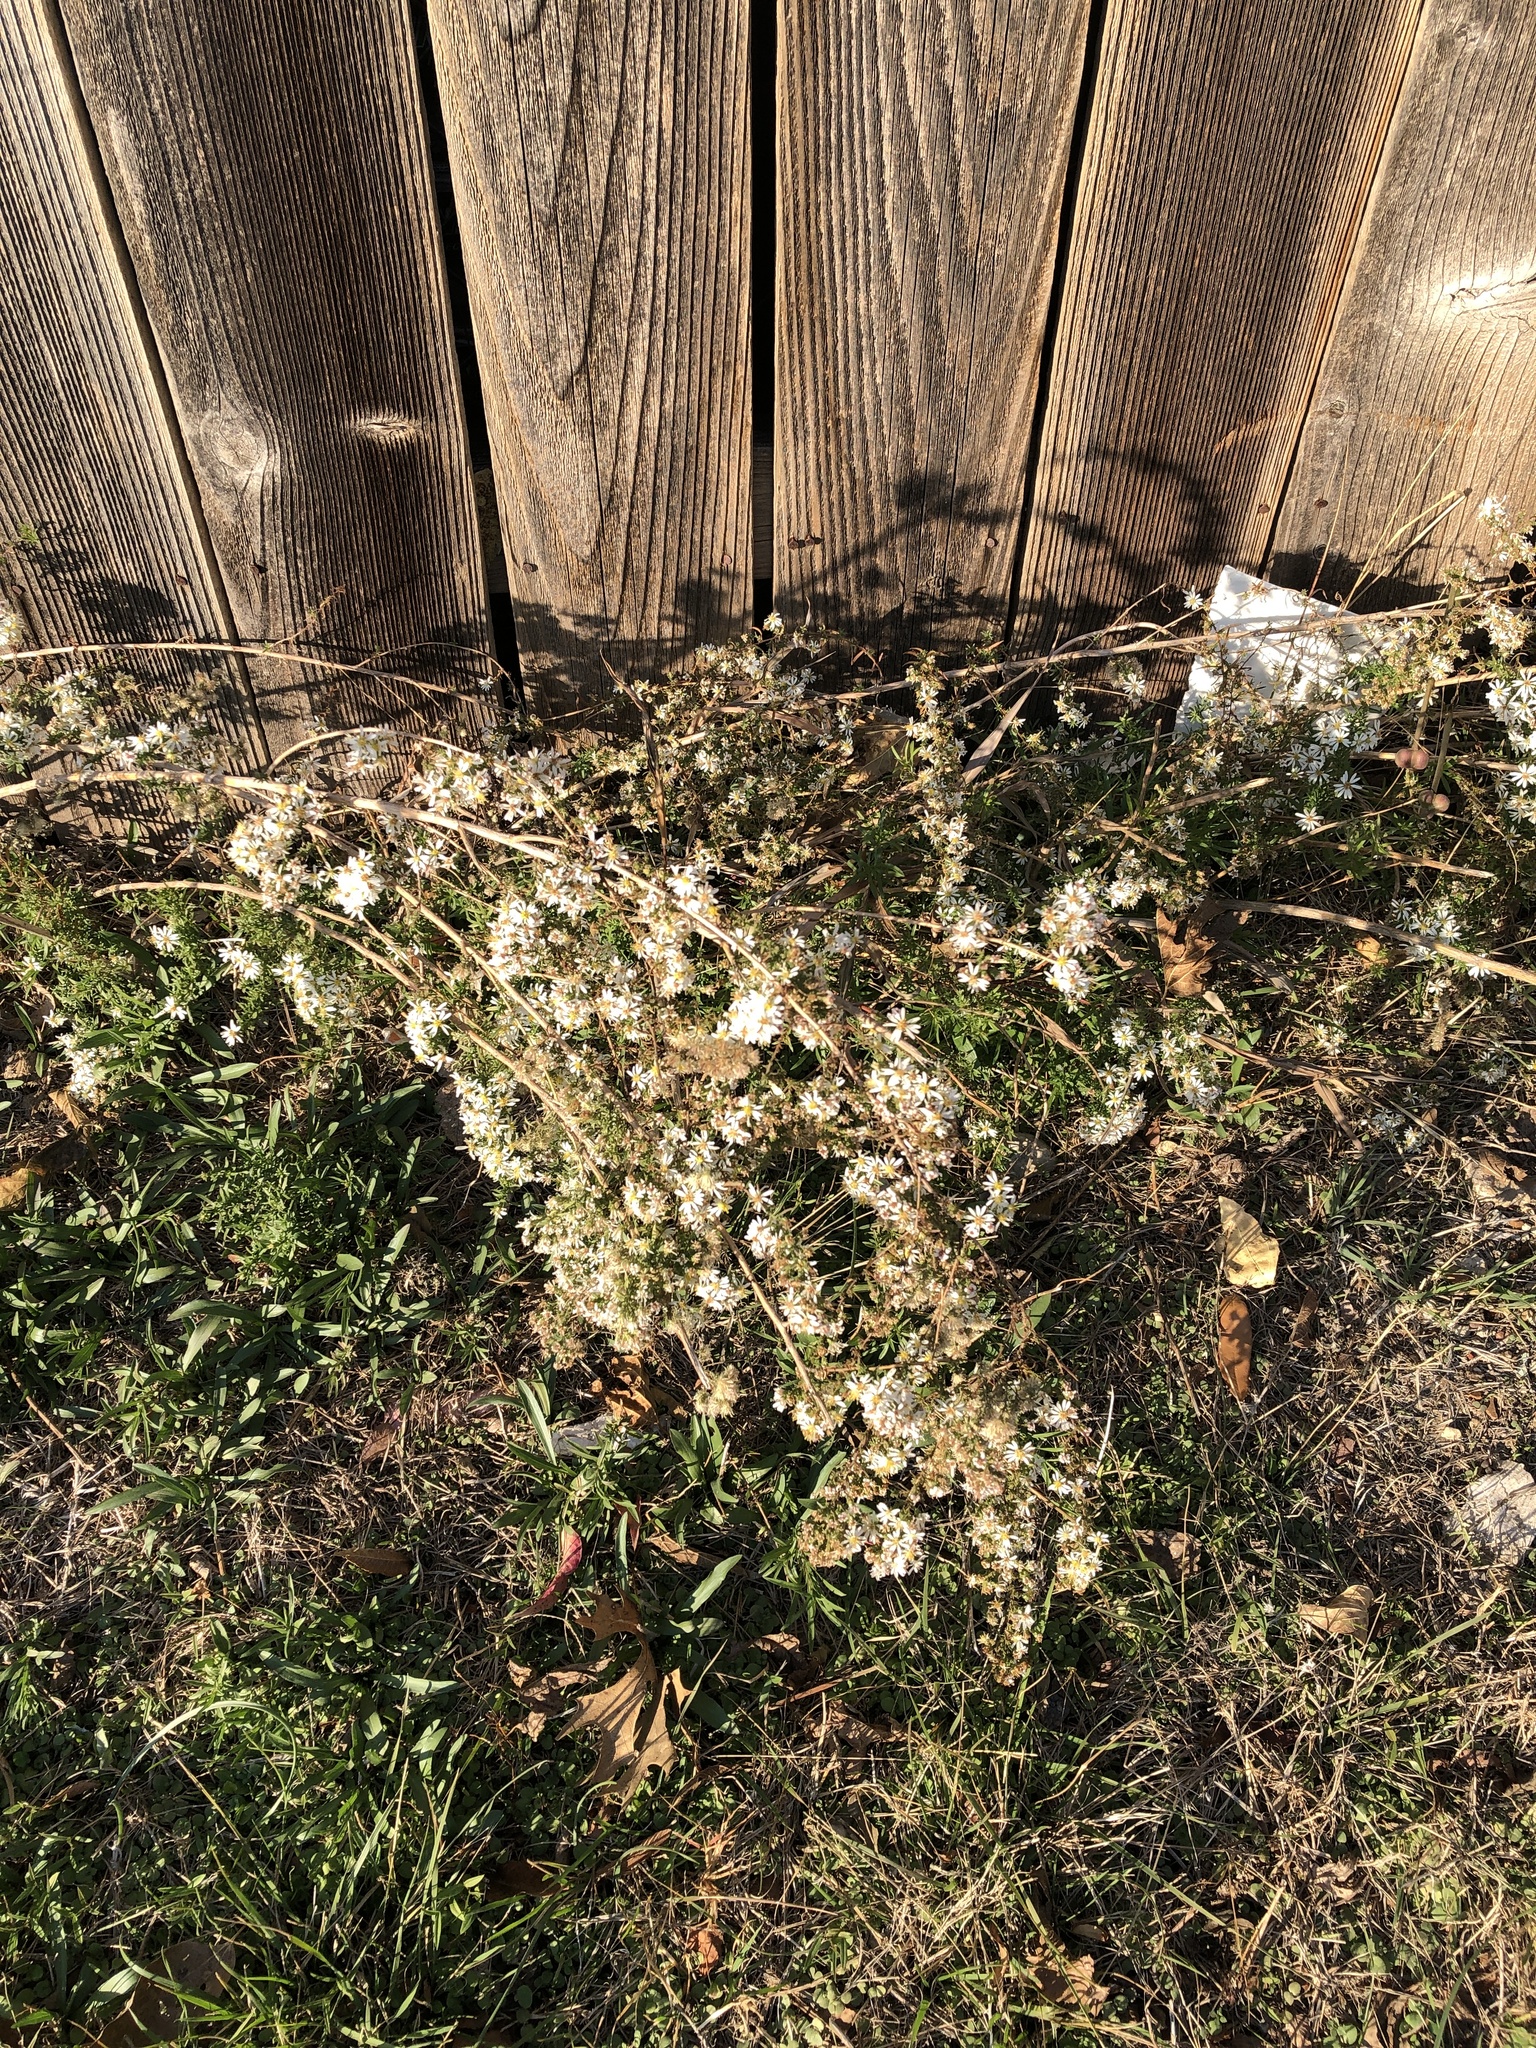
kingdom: Plantae
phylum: Tracheophyta
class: Magnoliopsida
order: Asterales
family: Asteraceae
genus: Symphyotrichum
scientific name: Symphyotrichum ericoides
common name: Heath aster
